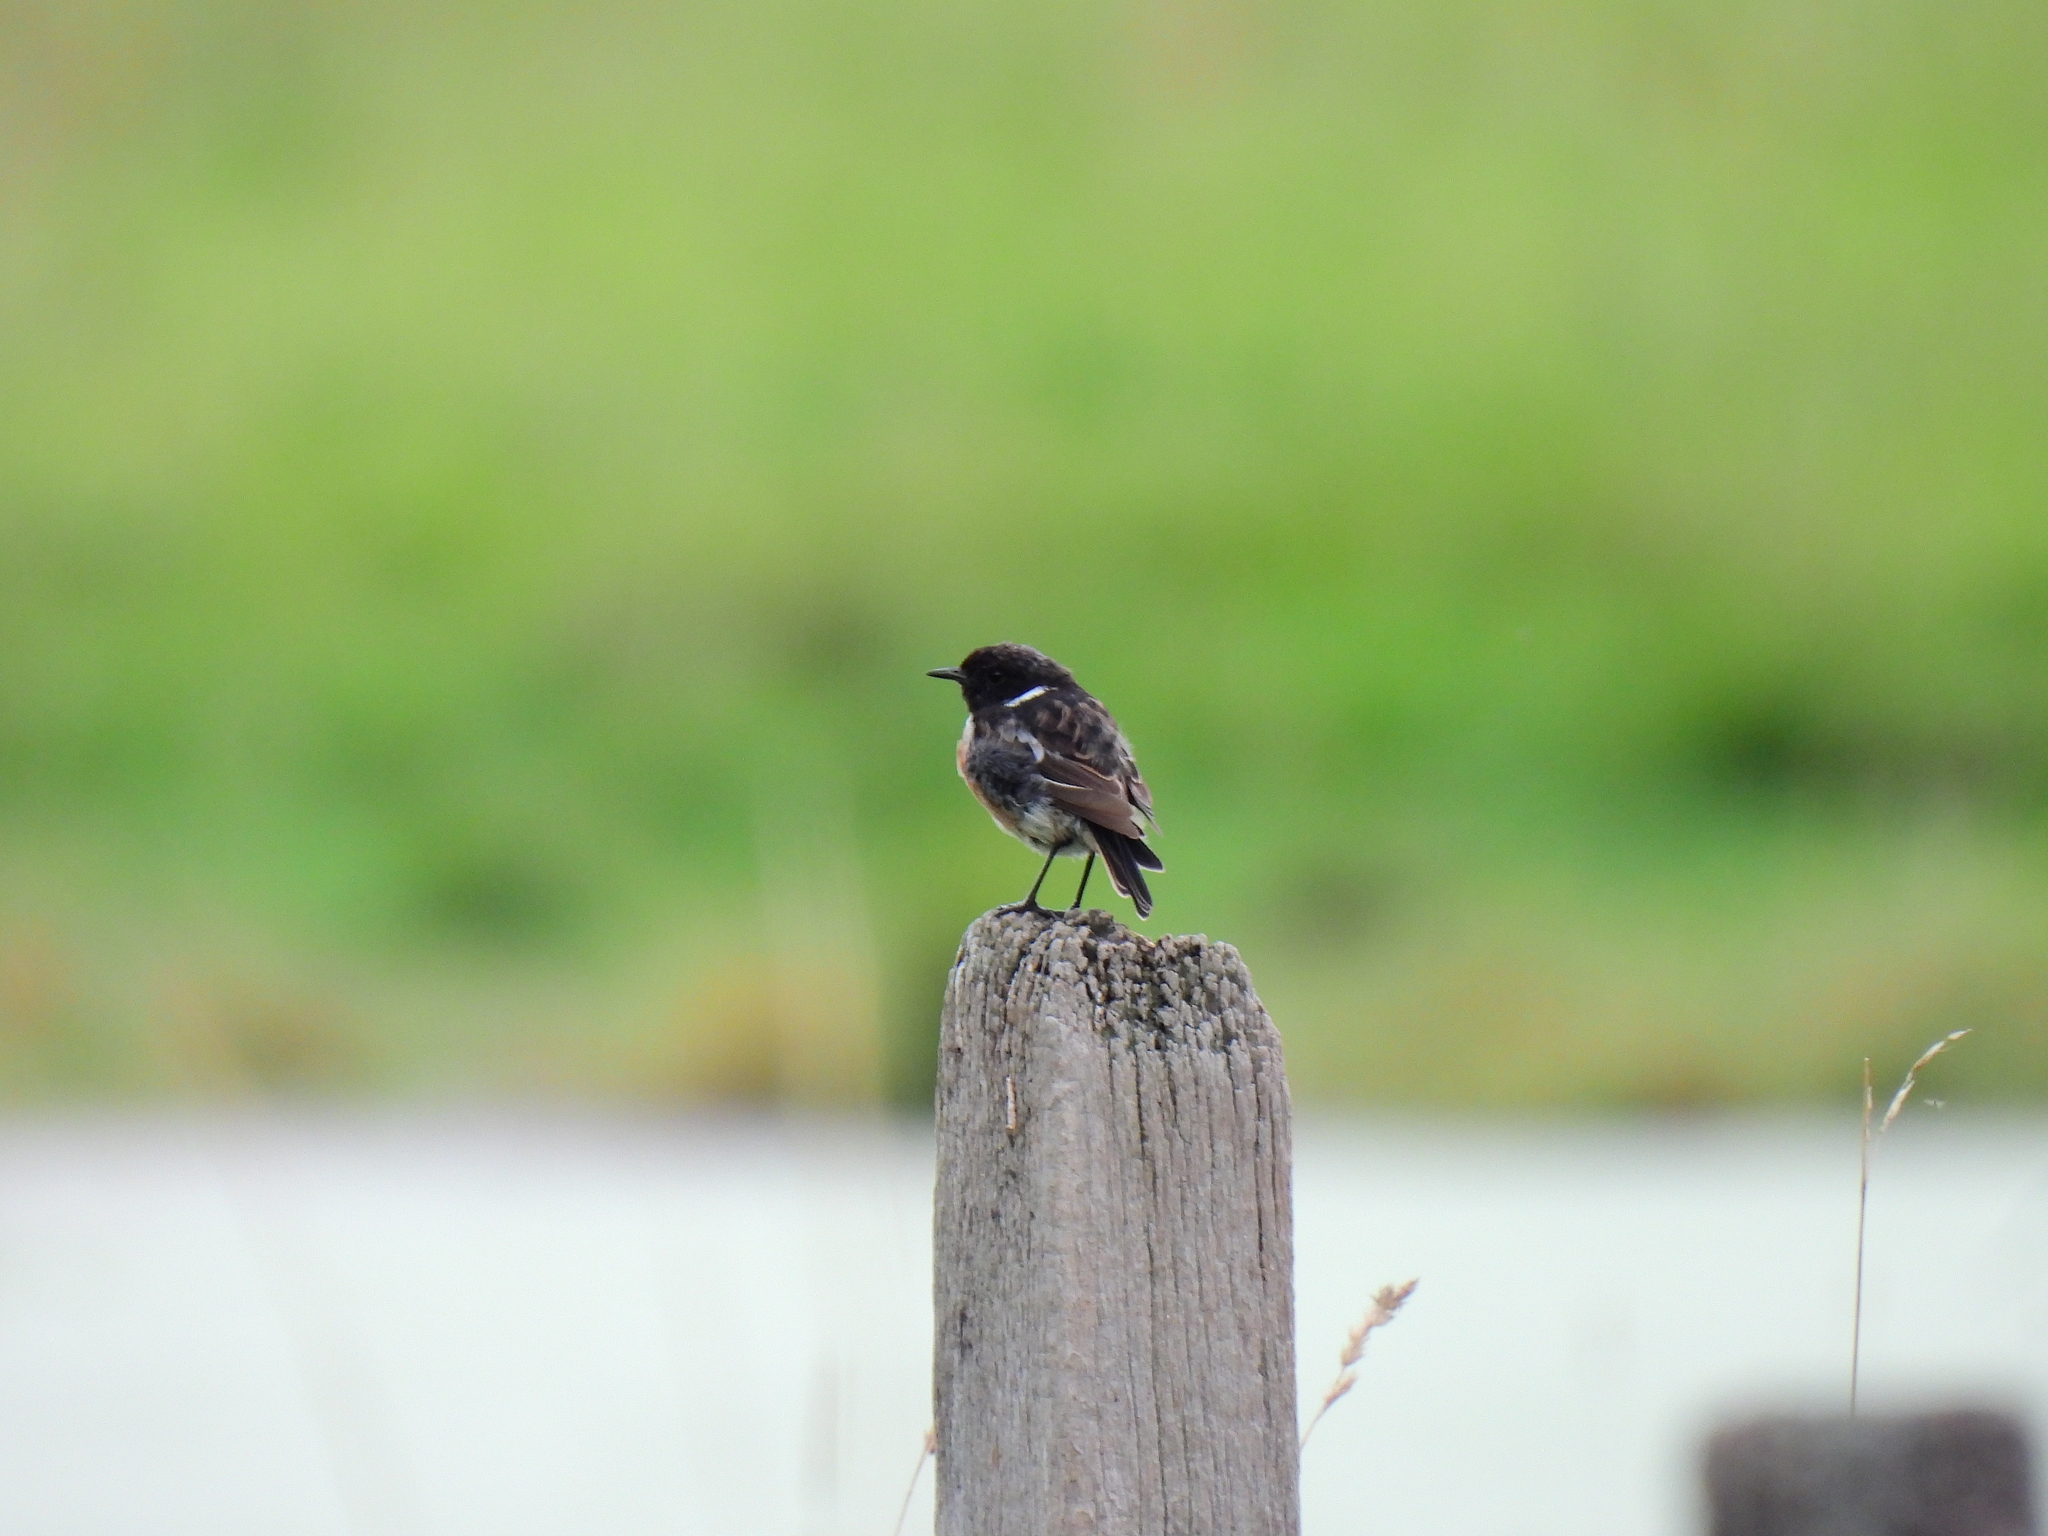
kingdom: Animalia
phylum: Chordata
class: Aves
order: Passeriformes
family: Muscicapidae
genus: Saxicola
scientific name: Saxicola rubicola
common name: European stonechat
